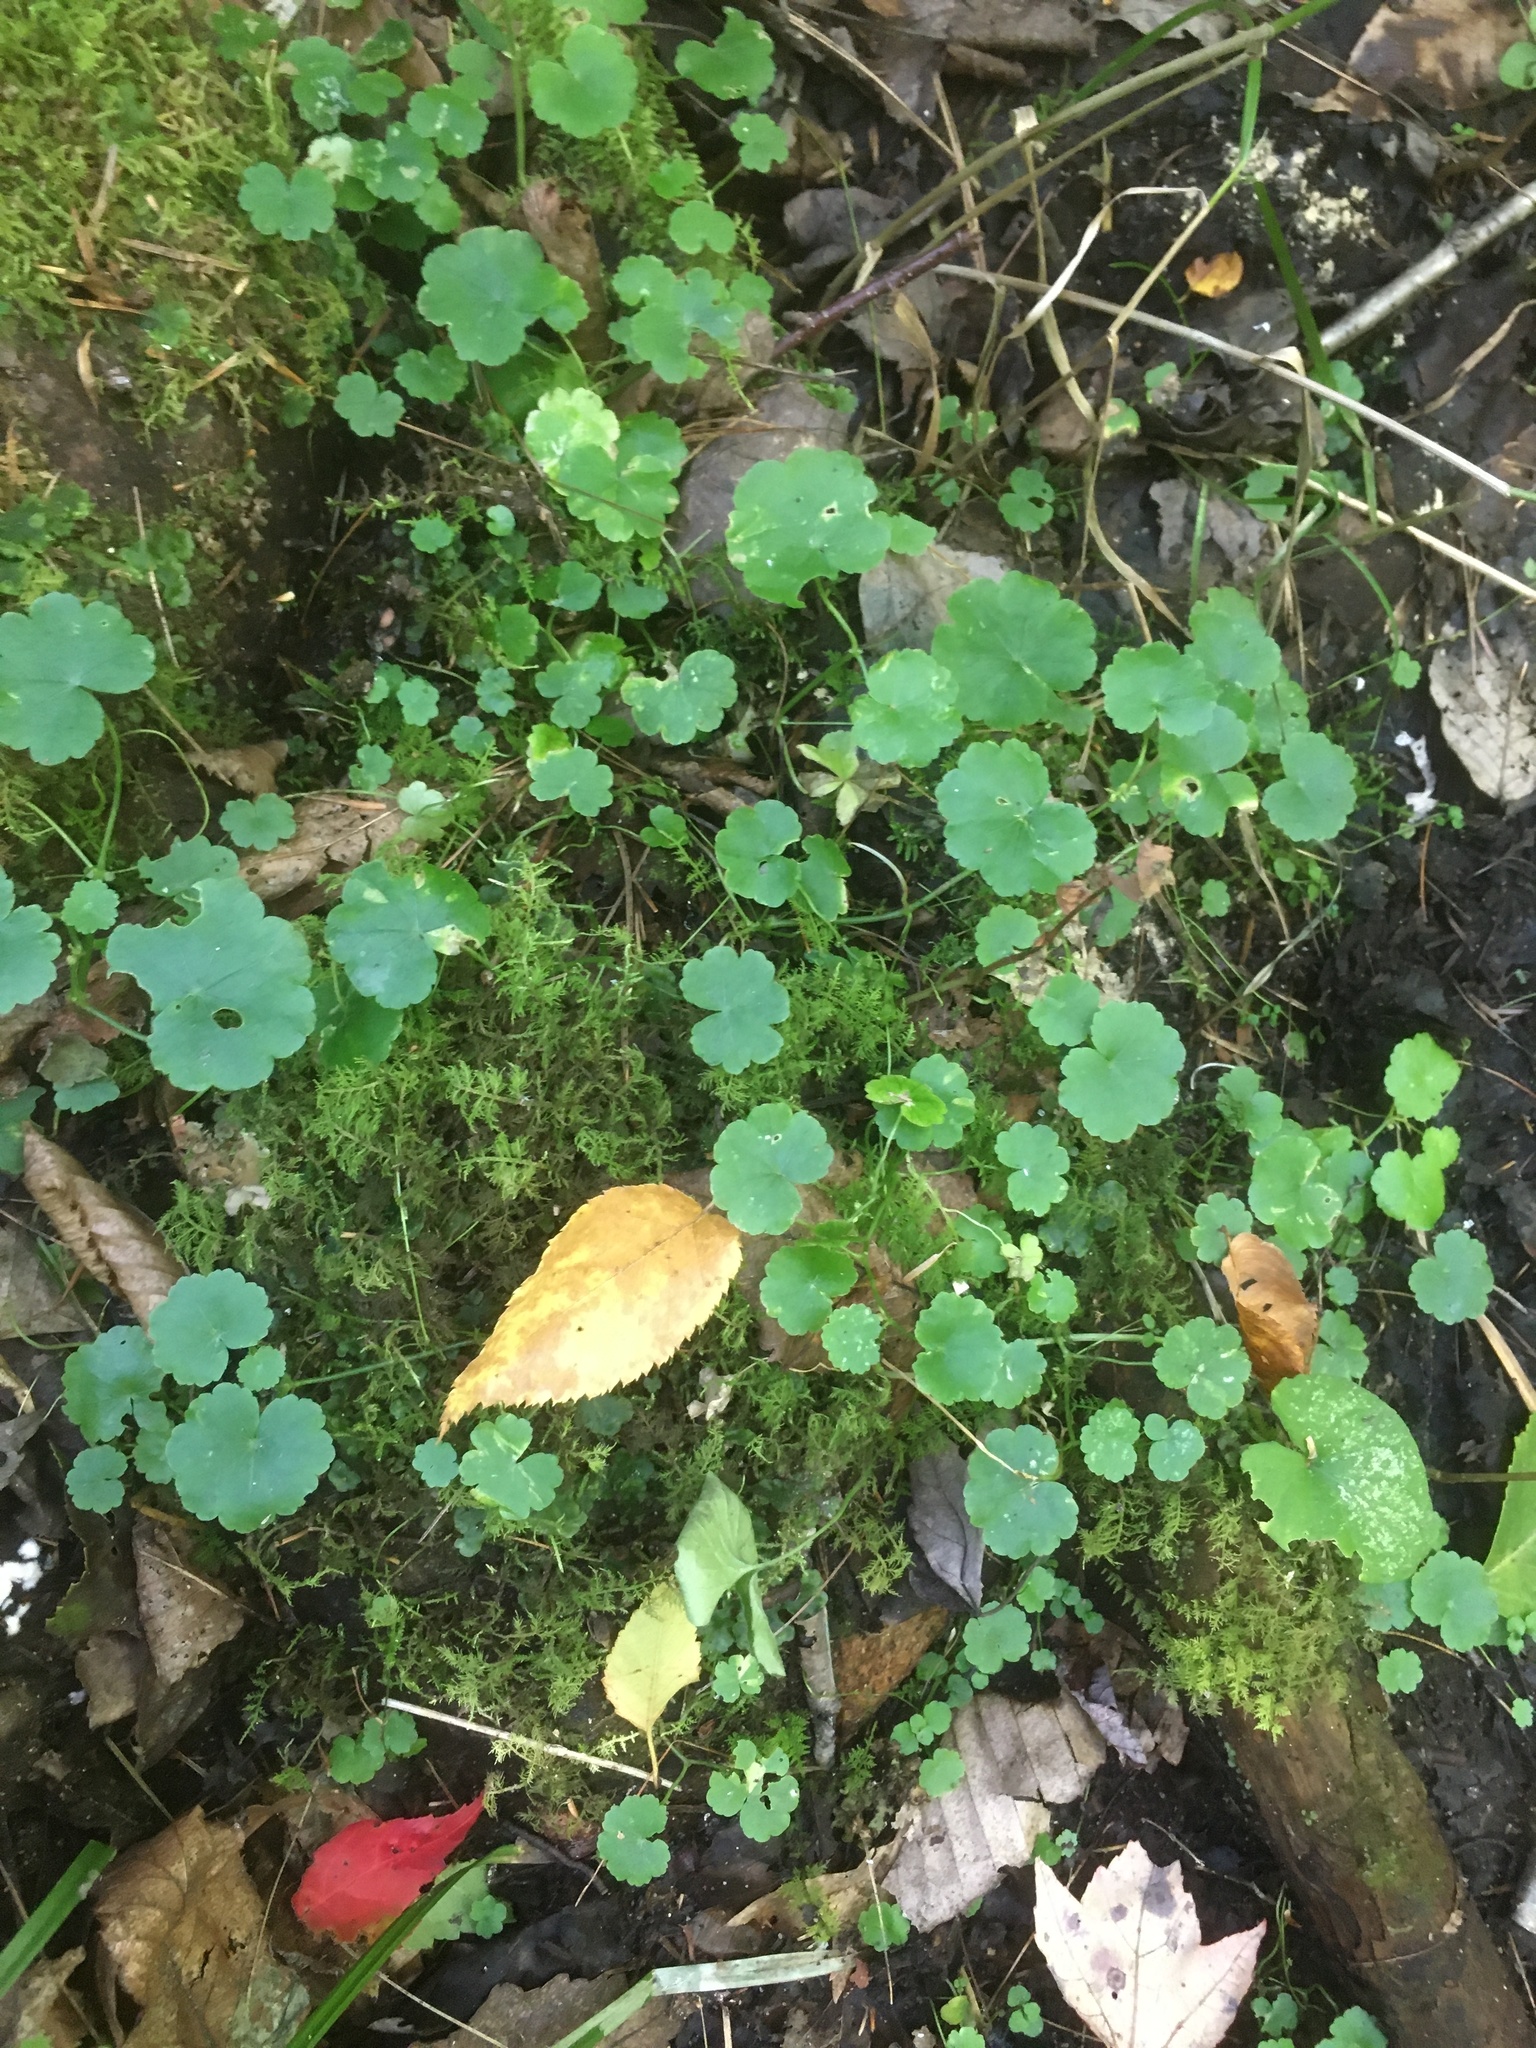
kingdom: Plantae
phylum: Tracheophyta
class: Magnoliopsida
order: Apiales
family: Araliaceae
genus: Hydrocotyle
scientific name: Hydrocotyle americana
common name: American water-pennywort
